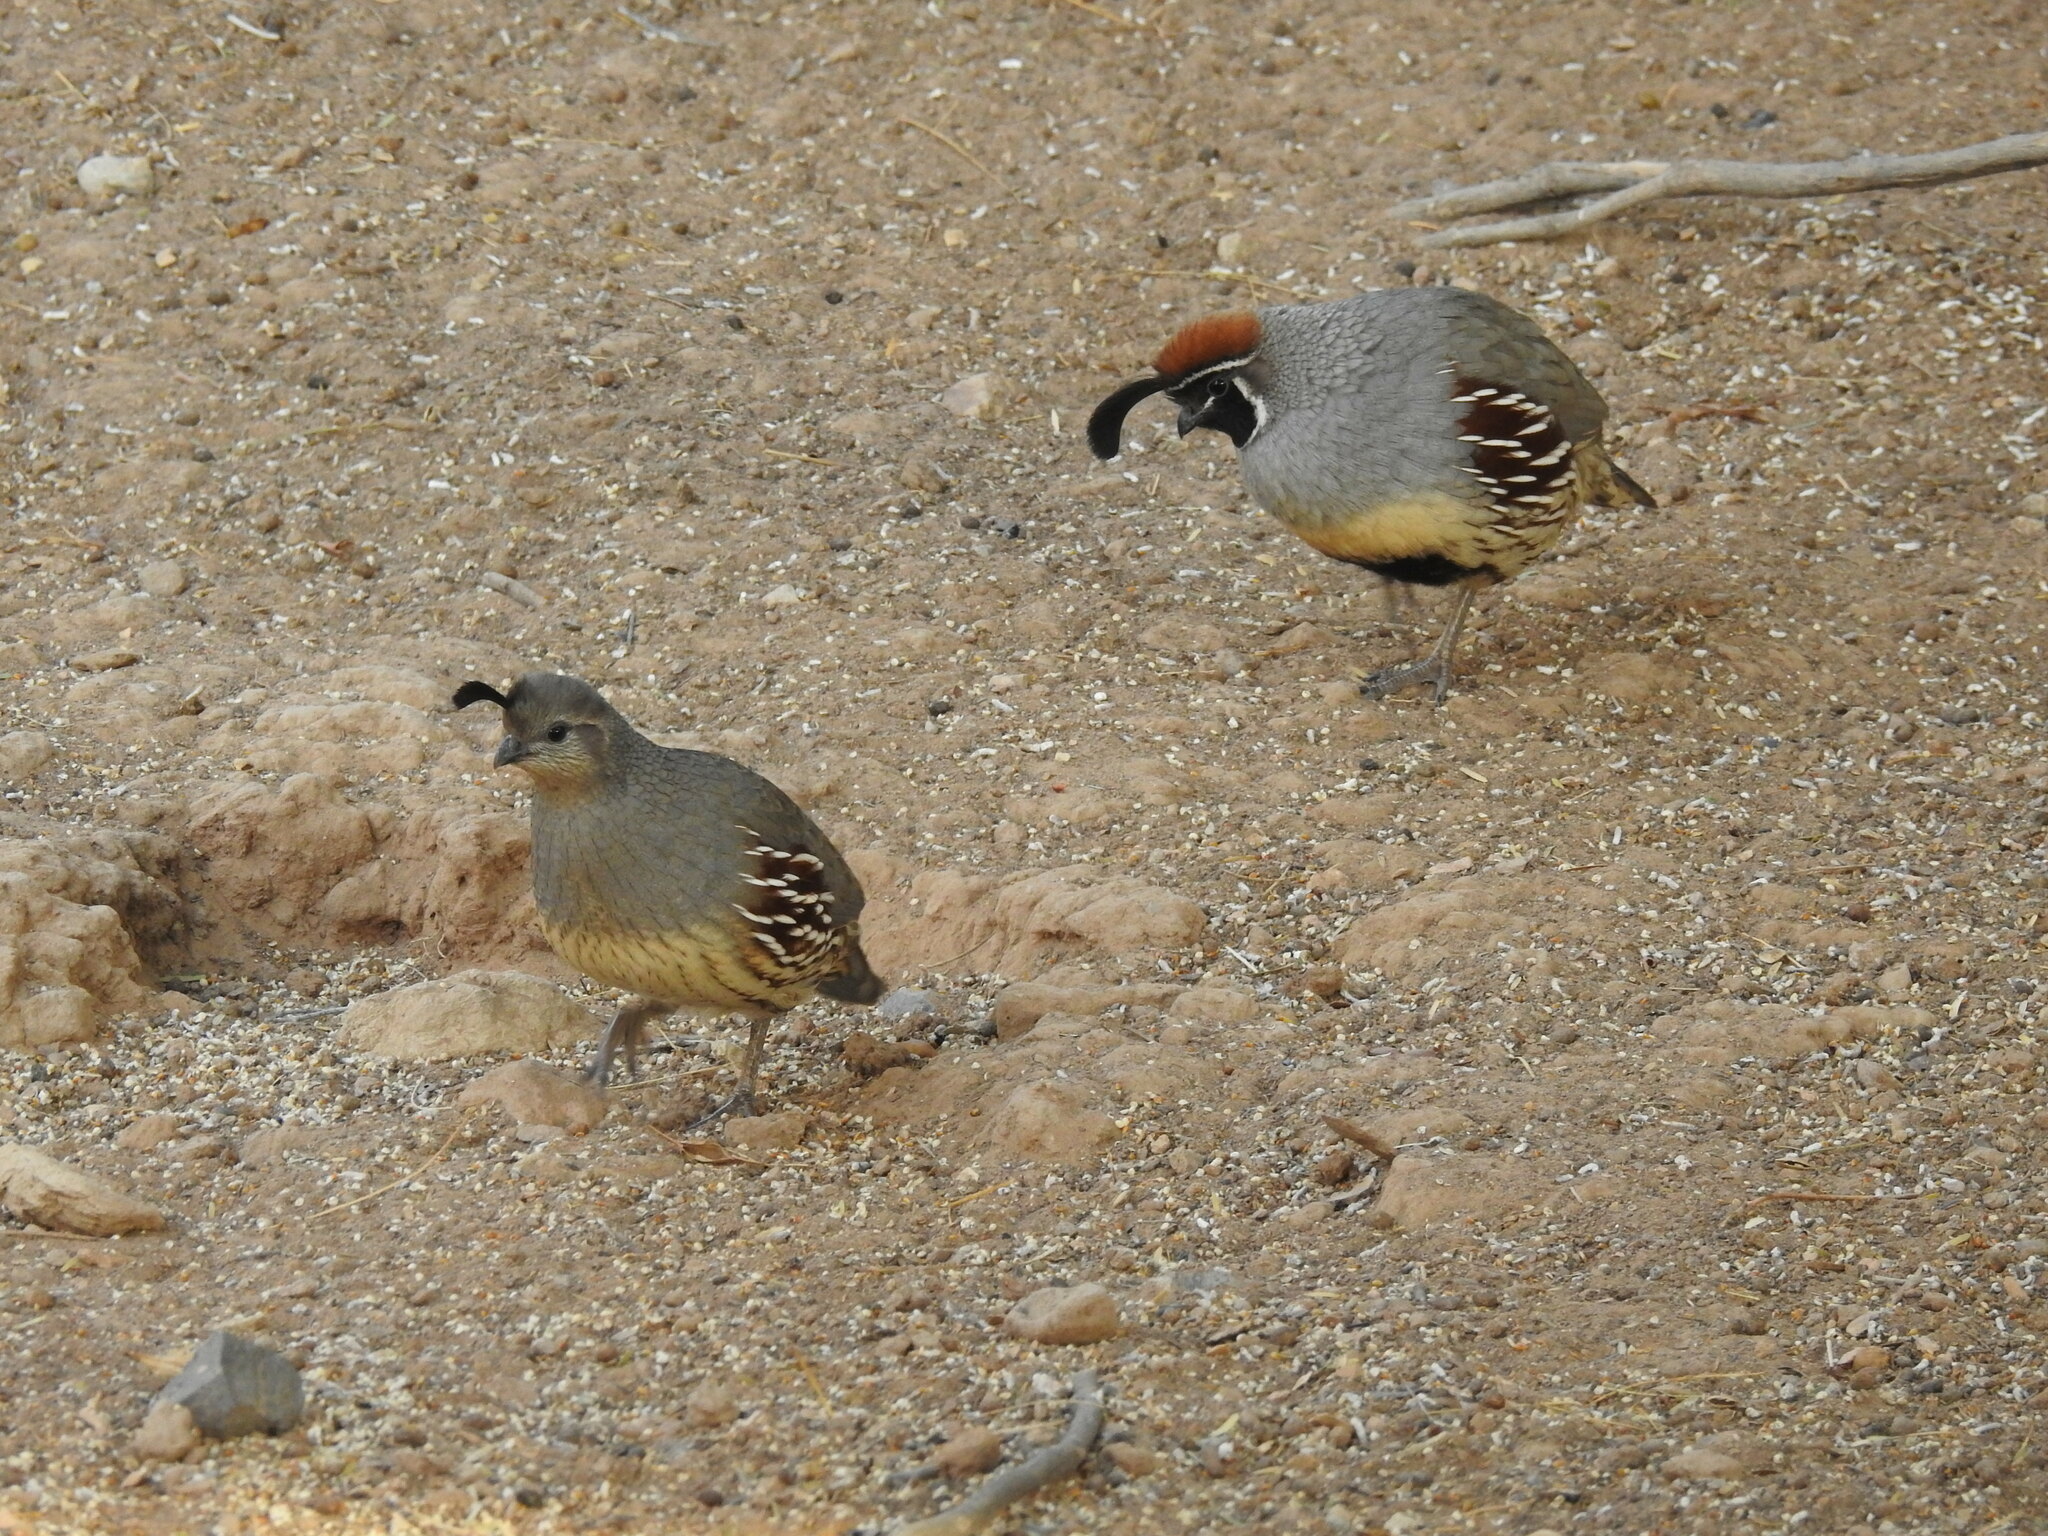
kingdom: Animalia
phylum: Chordata
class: Aves
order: Galliformes
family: Odontophoridae
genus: Callipepla
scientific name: Callipepla gambelii
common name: Gambel's quail
